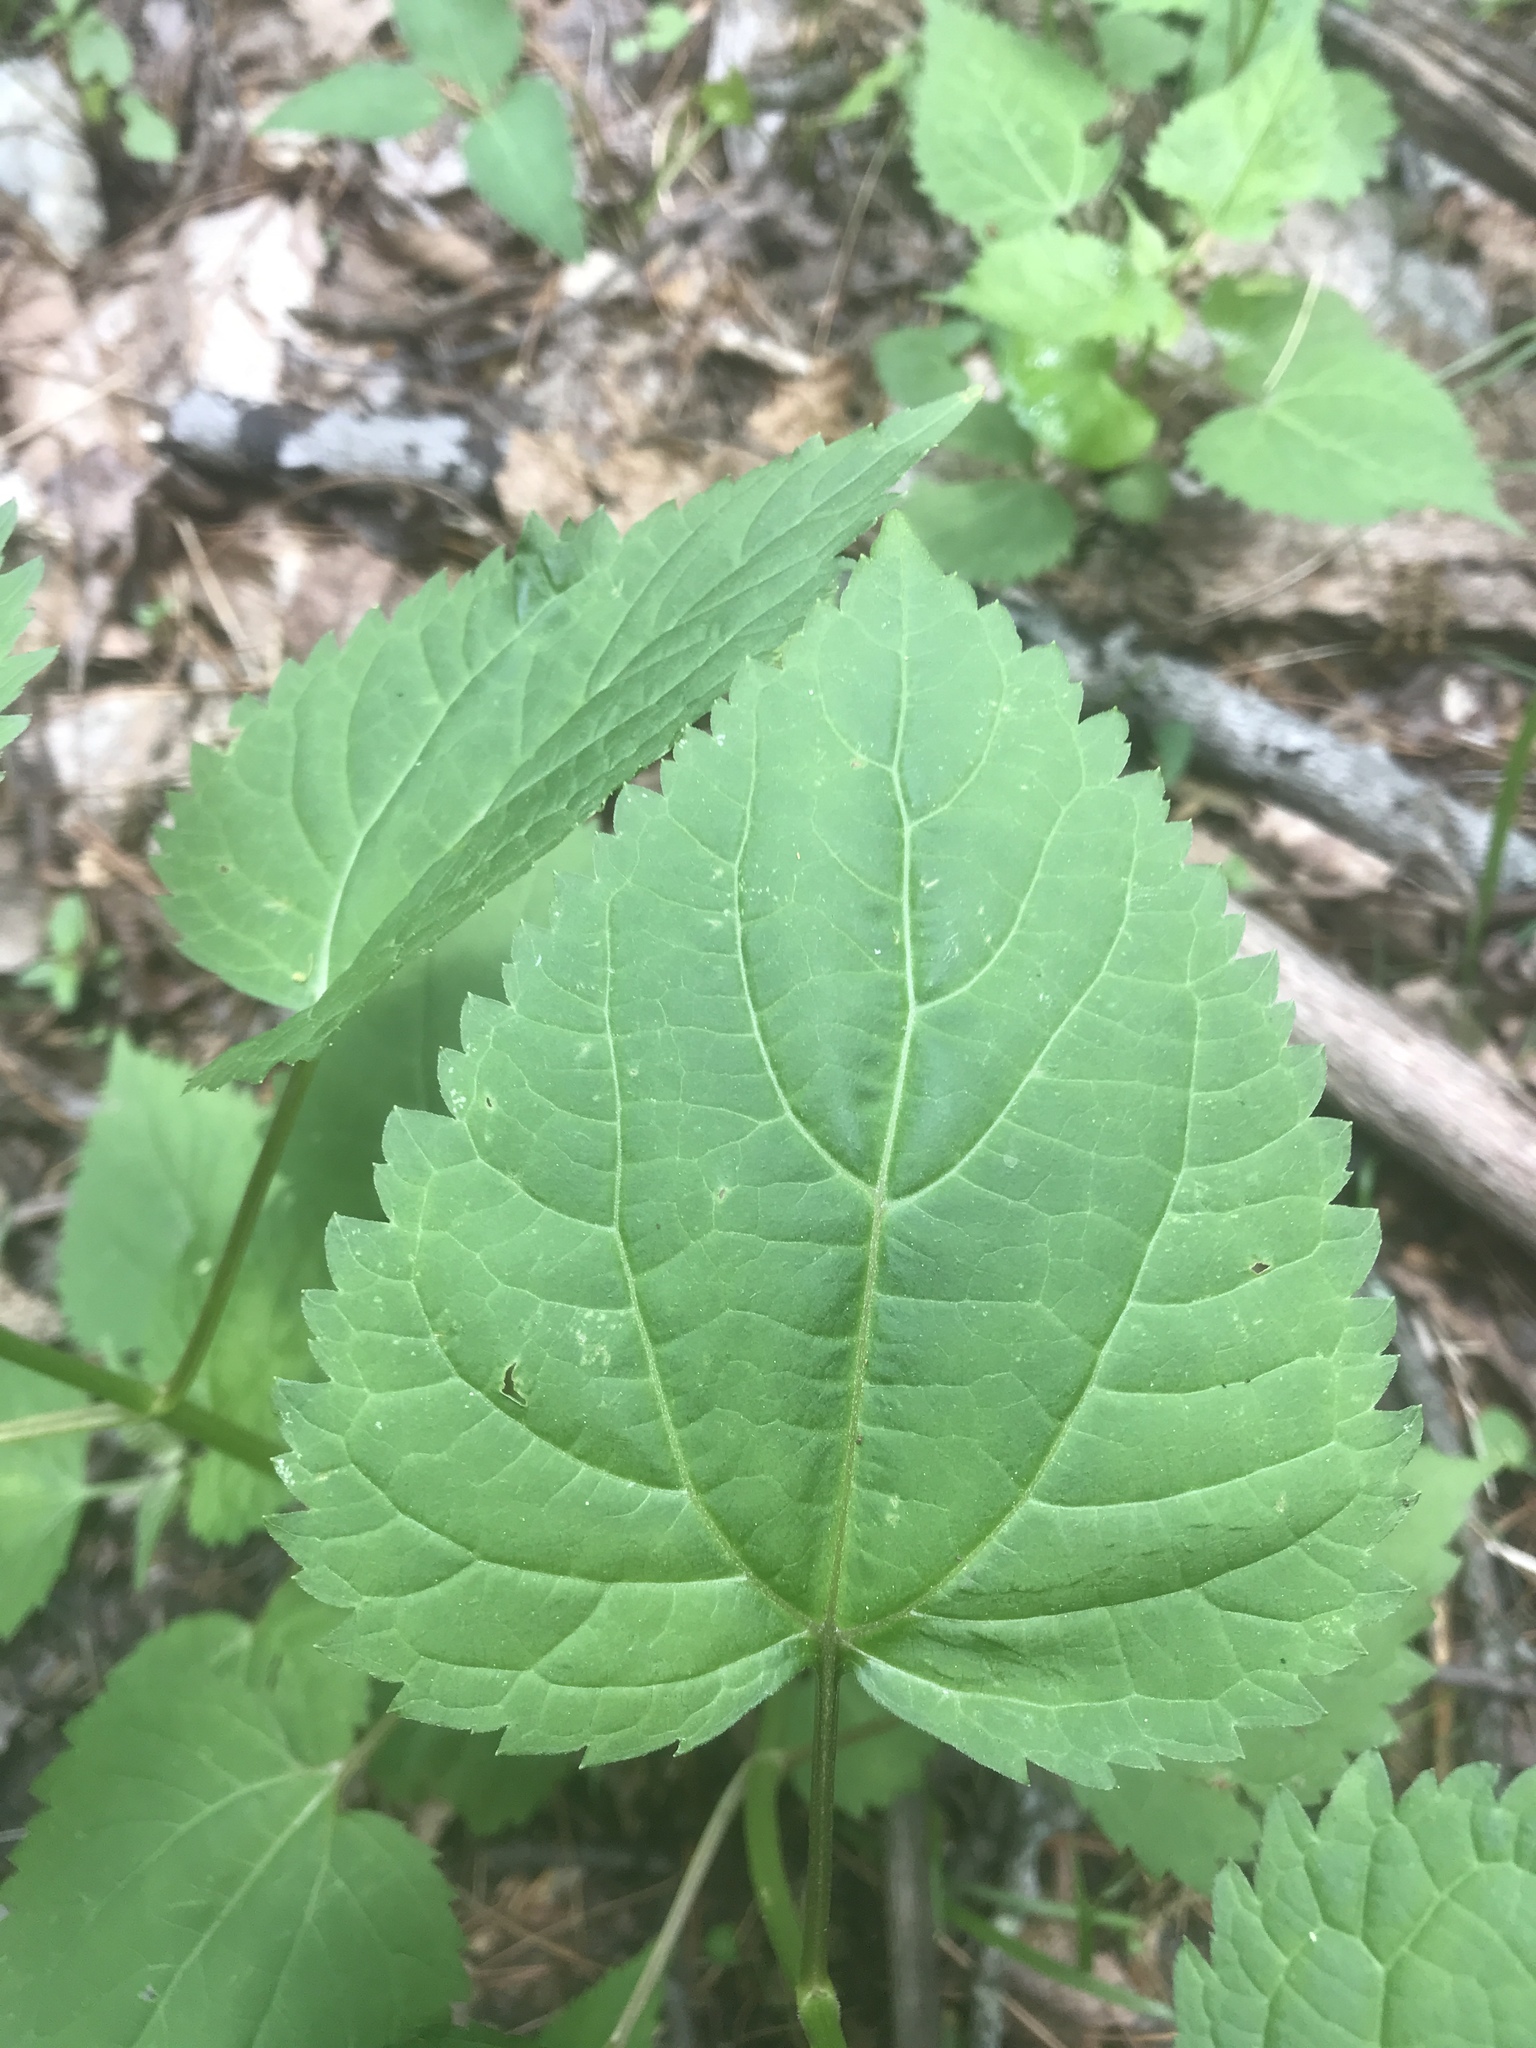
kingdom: Plantae
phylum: Tracheophyta
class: Magnoliopsida
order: Asterales
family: Asteraceae
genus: Ageratina
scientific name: Ageratina altissima
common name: White snakeroot
